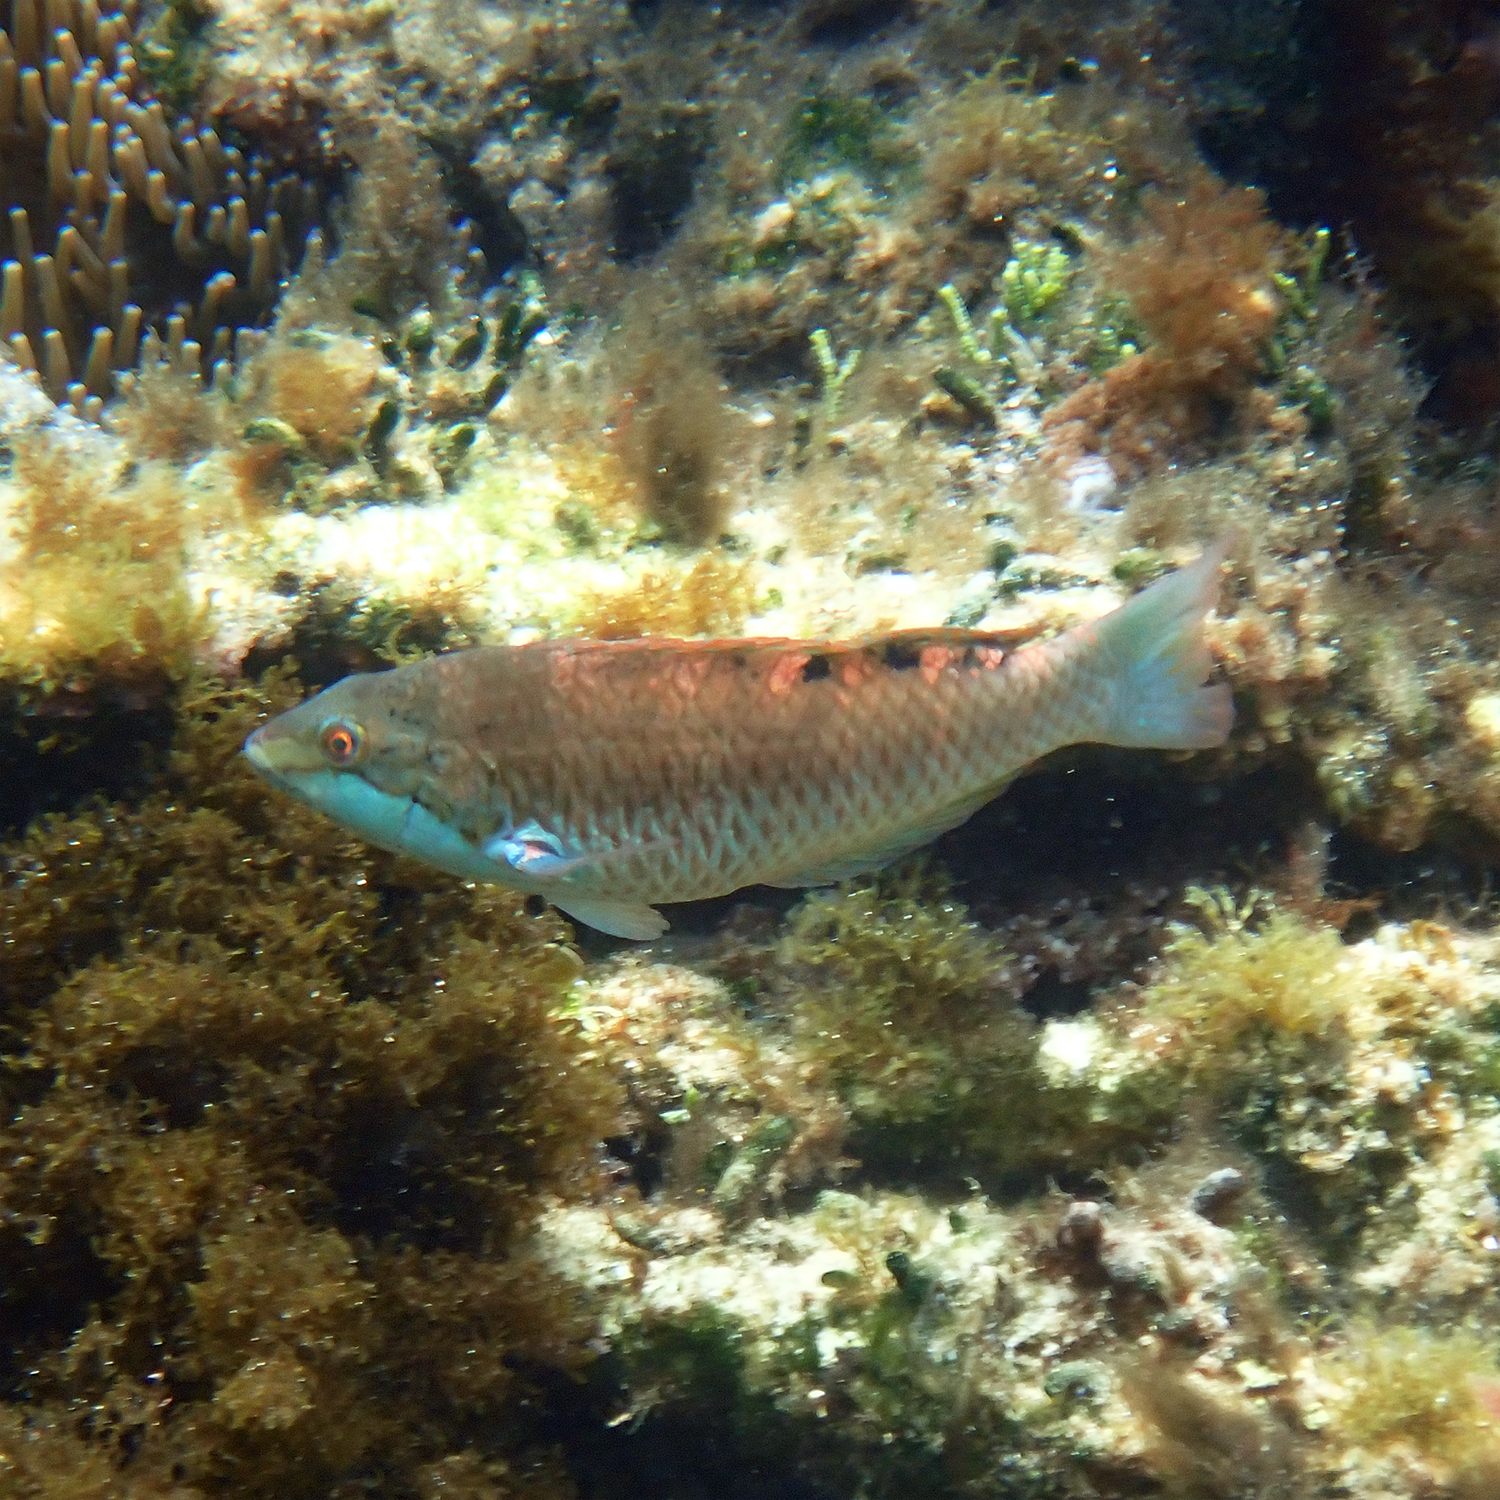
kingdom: Animalia
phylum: Chordata
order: Perciformes
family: Labridae
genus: Pseudolabrus
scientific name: Pseudolabrus luculentus
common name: Luculentus wrasse
